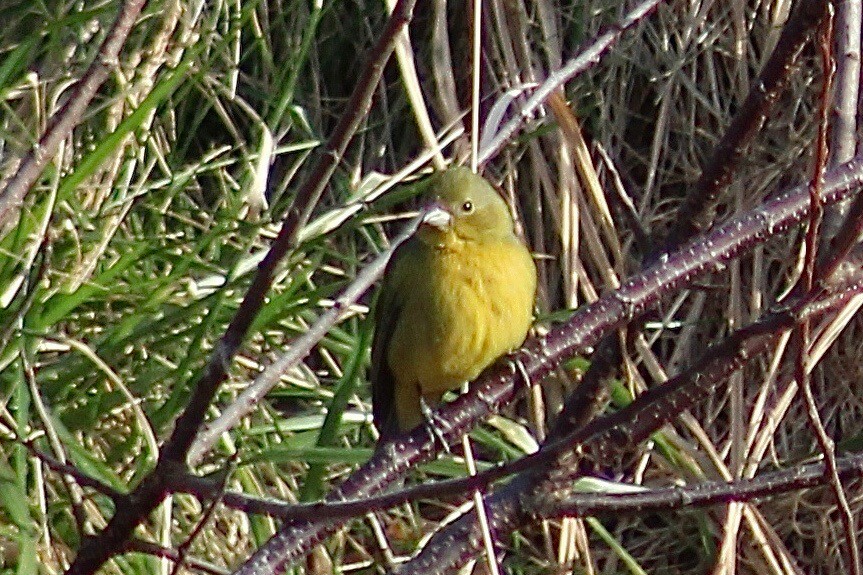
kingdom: Animalia
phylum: Chordata
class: Aves
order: Passeriformes
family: Cardinalidae
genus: Passerina
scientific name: Passerina ciris
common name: Painted bunting
